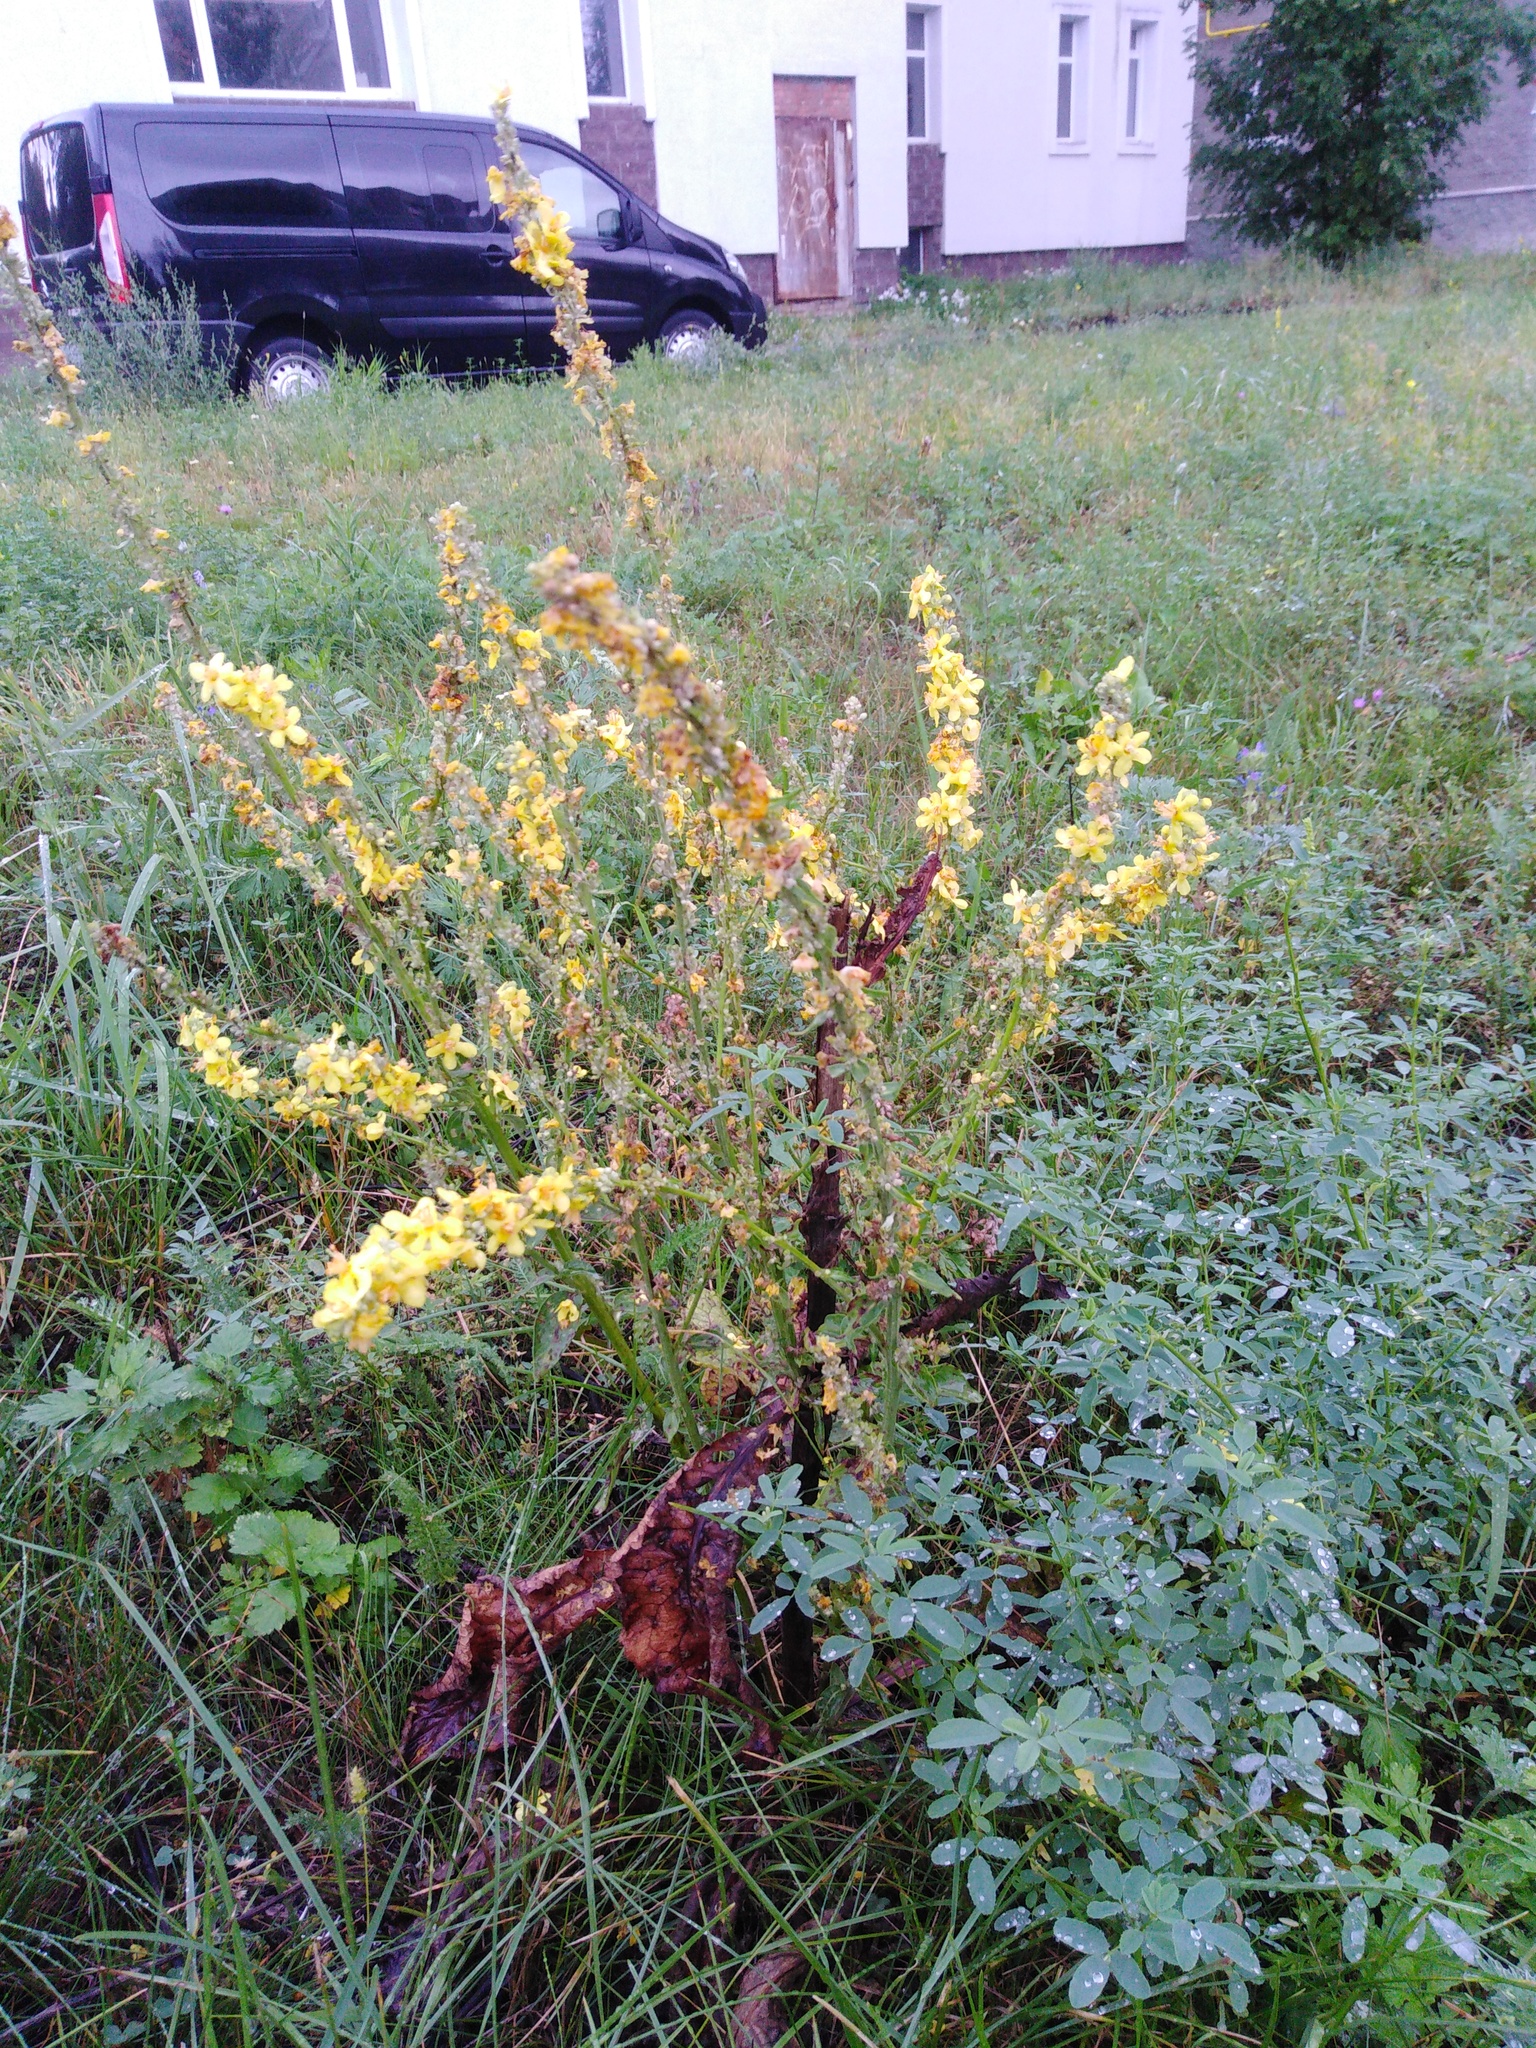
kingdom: Plantae
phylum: Tracheophyta
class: Magnoliopsida
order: Lamiales
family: Scrophulariaceae
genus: Verbascum
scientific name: Verbascum lychnitis
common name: White mullein
